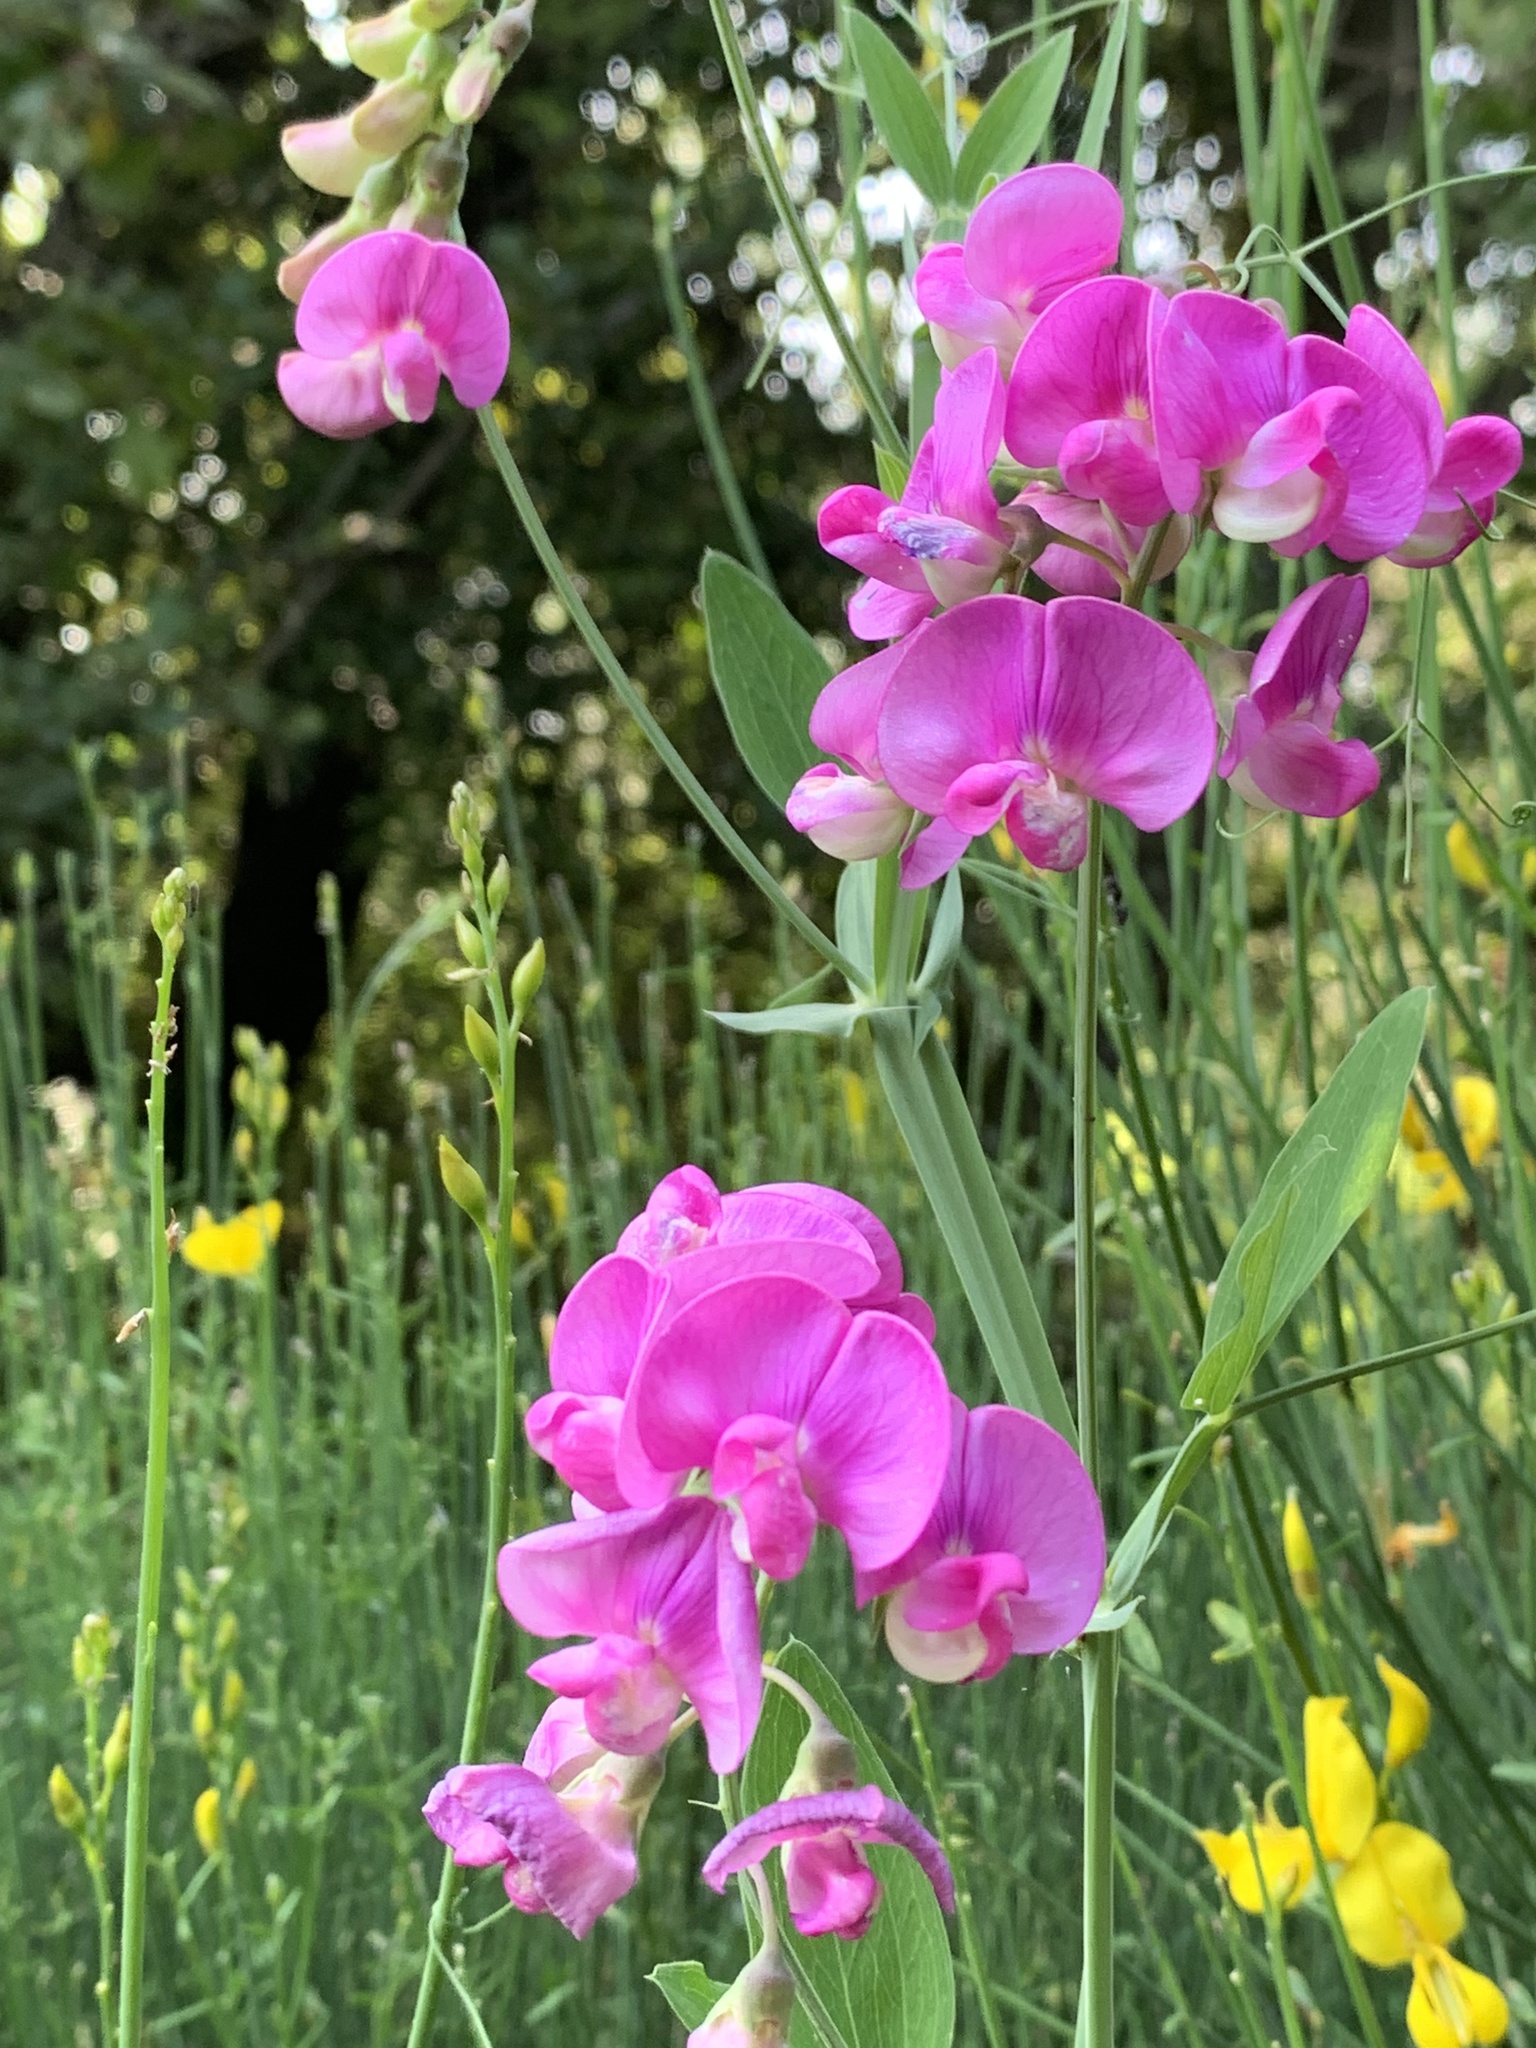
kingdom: Plantae
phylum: Tracheophyta
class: Magnoliopsida
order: Fabales
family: Fabaceae
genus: Lathyrus
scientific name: Lathyrus latifolius
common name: Perennial pea
